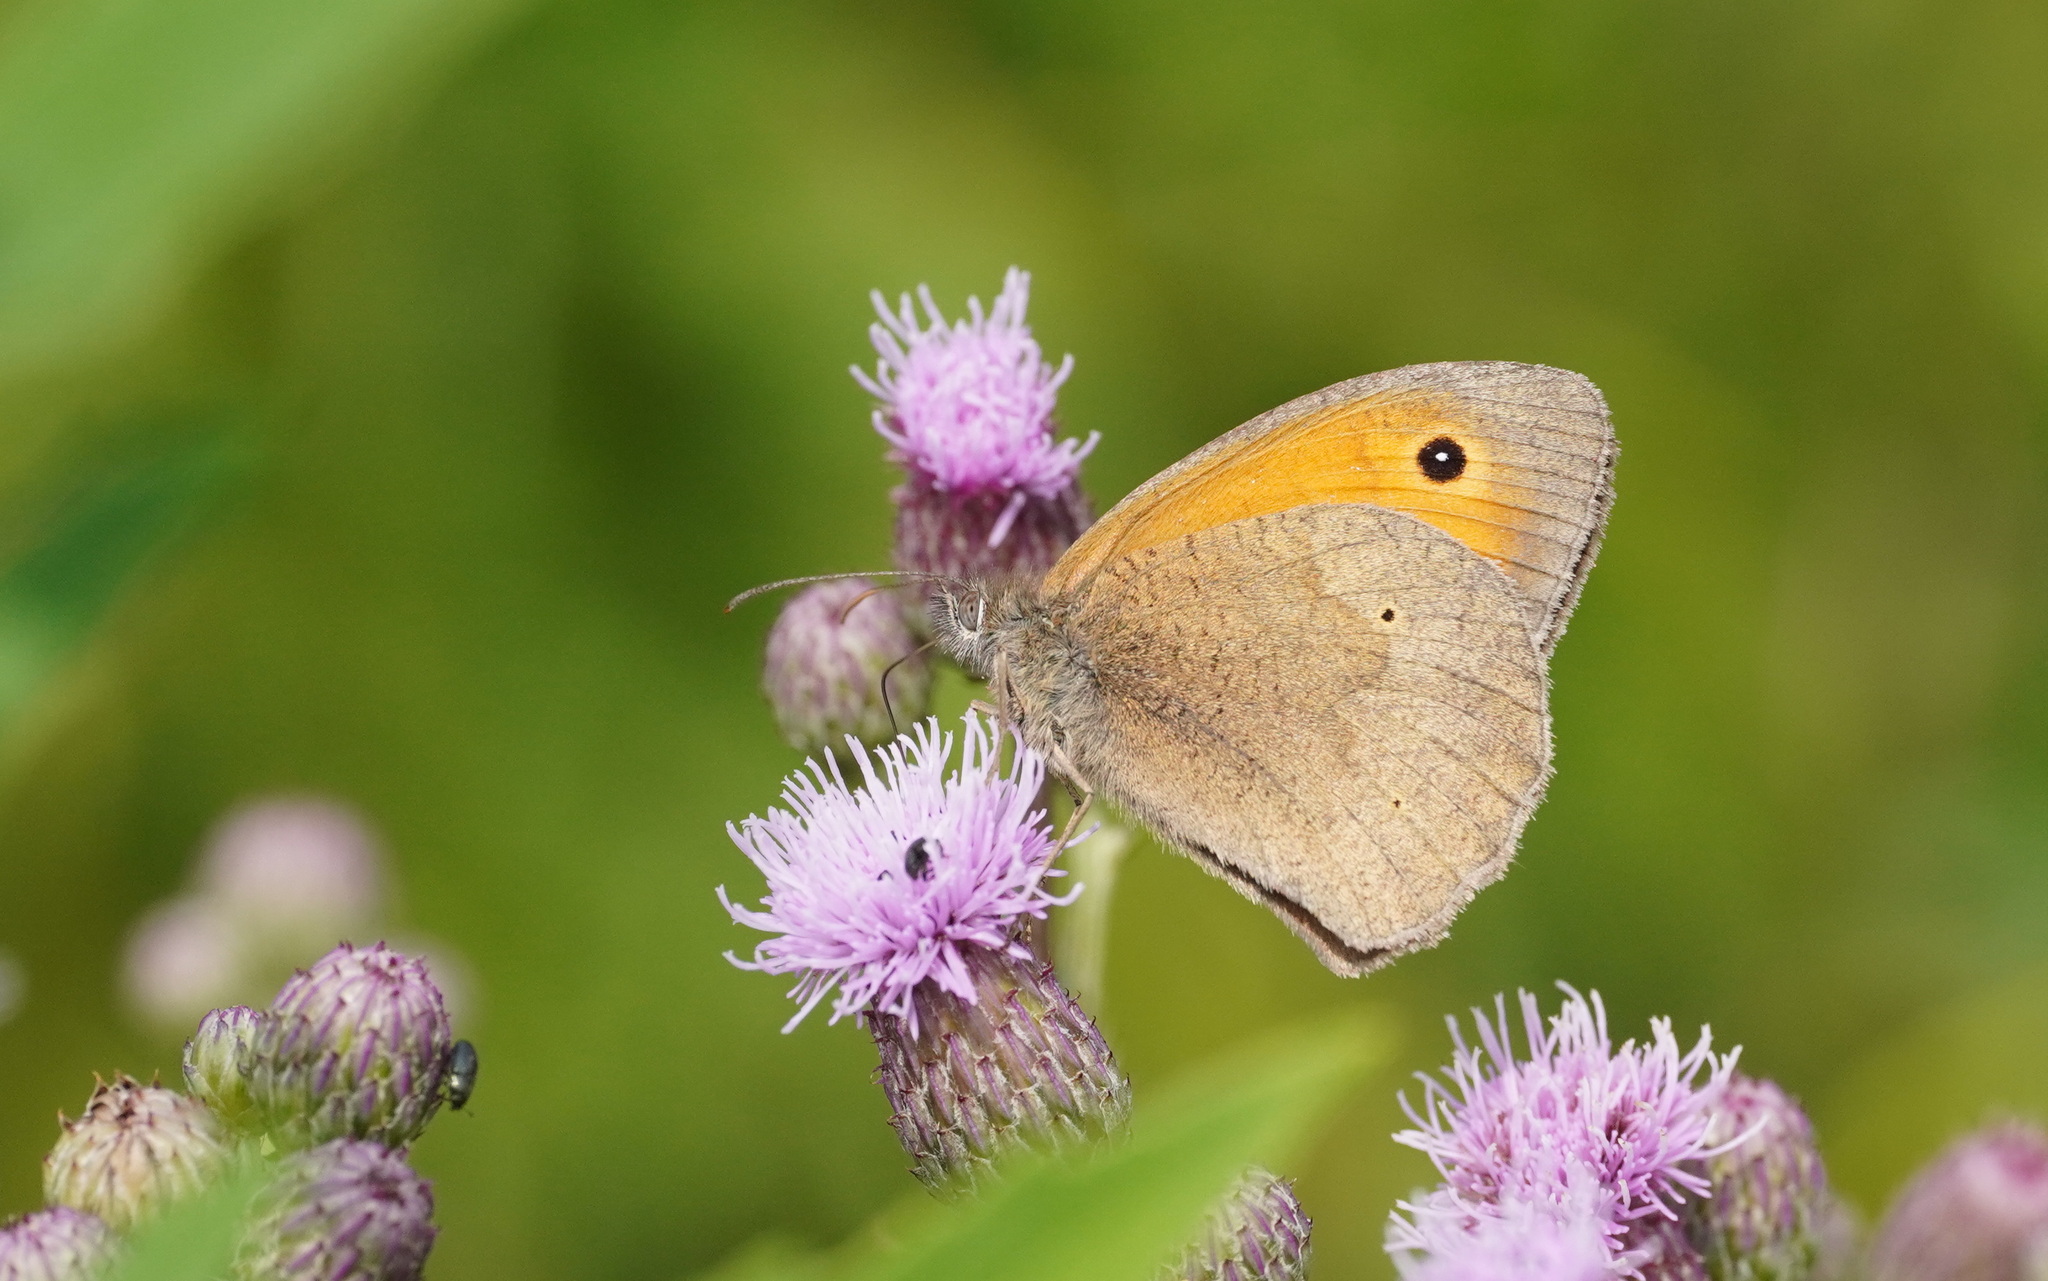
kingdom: Animalia
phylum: Arthropoda
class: Insecta
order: Lepidoptera
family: Nymphalidae
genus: Maniola
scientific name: Maniola jurtina
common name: Meadow brown
